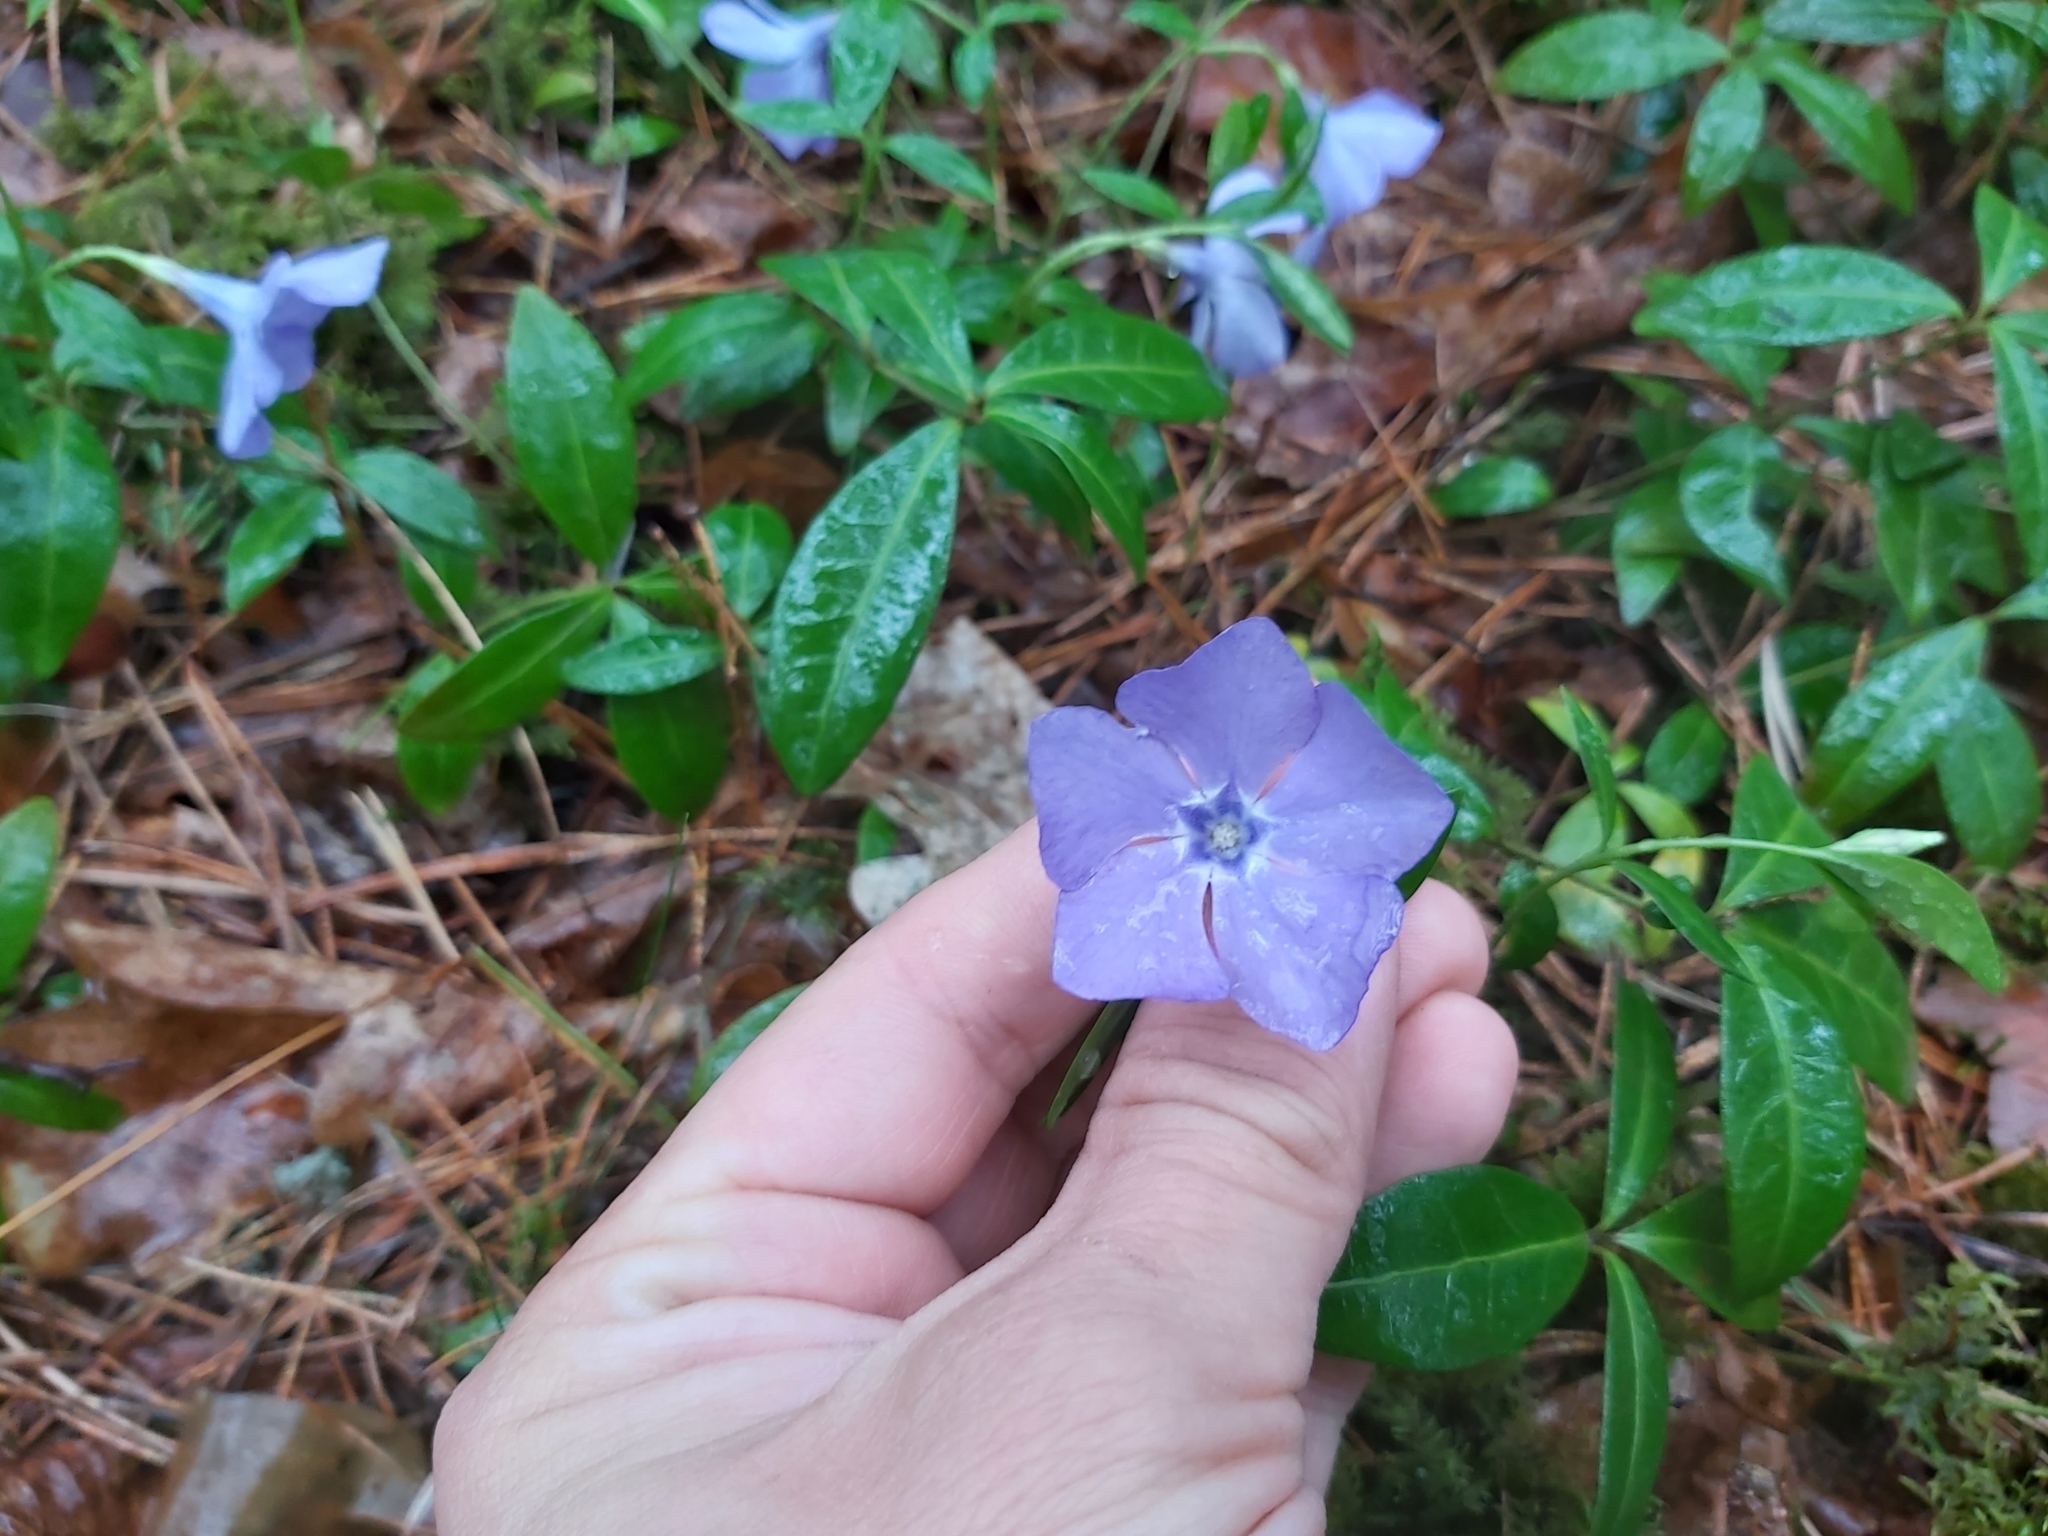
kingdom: Plantae
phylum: Tracheophyta
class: Magnoliopsida
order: Gentianales
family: Apocynaceae
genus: Vinca
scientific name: Vinca minor
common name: Lesser periwinkle
